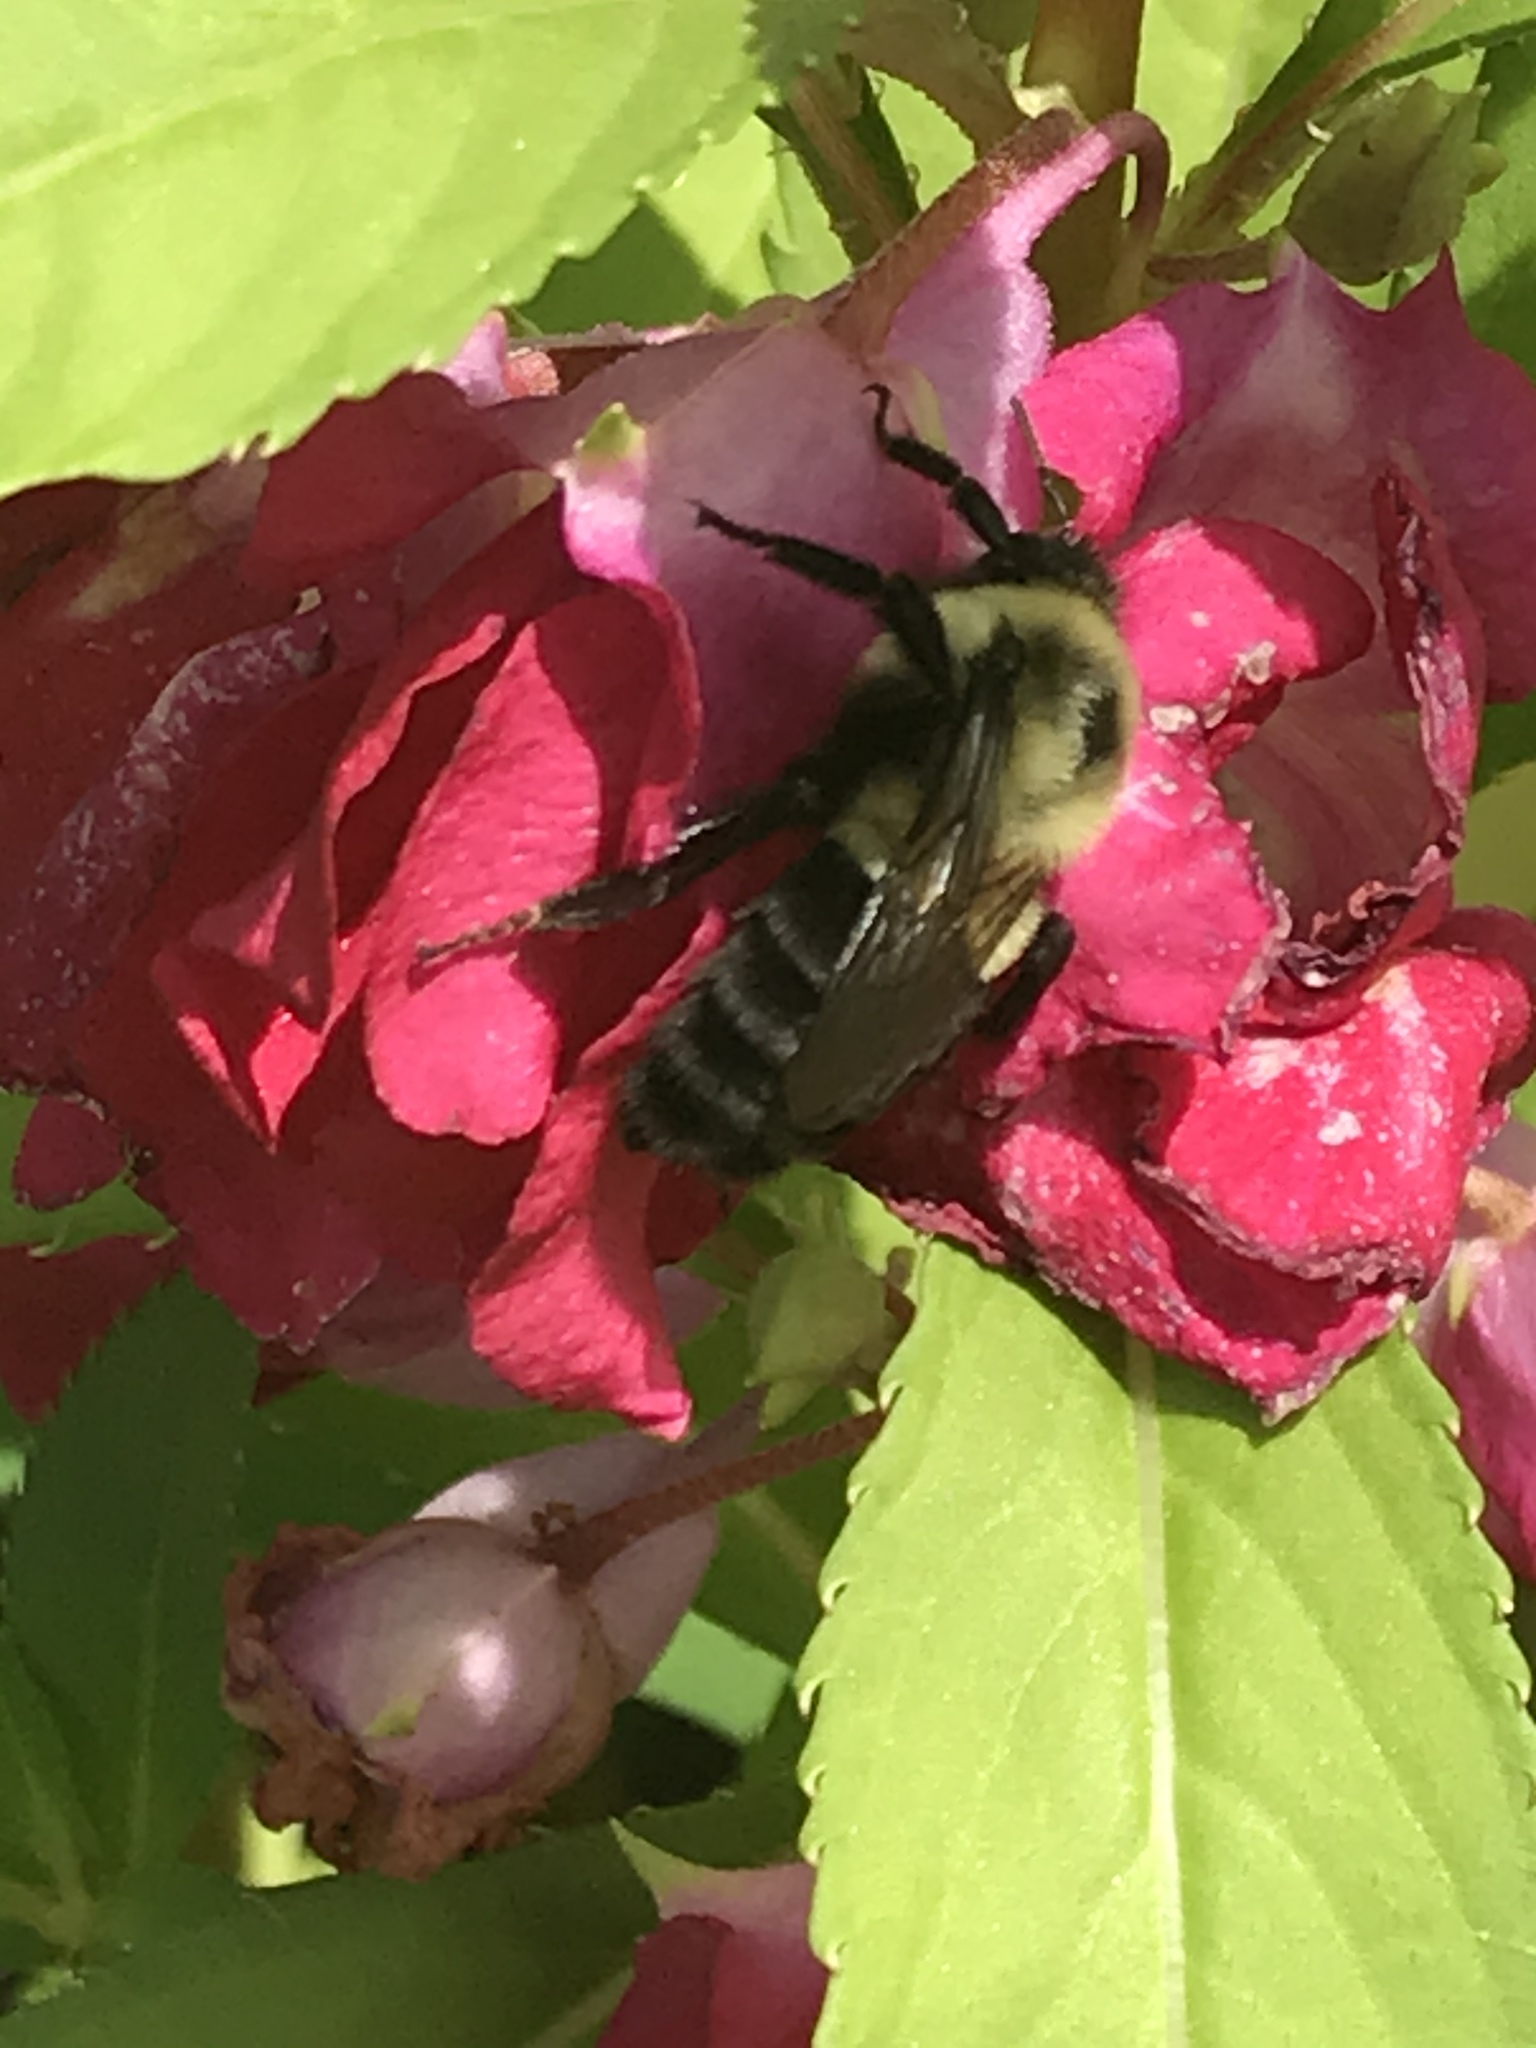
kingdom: Animalia
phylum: Arthropoda
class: Insecta
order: Hymenoptera
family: Apidae
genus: Bombus
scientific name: Bombus impatiens
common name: Common eastern bumble bee
